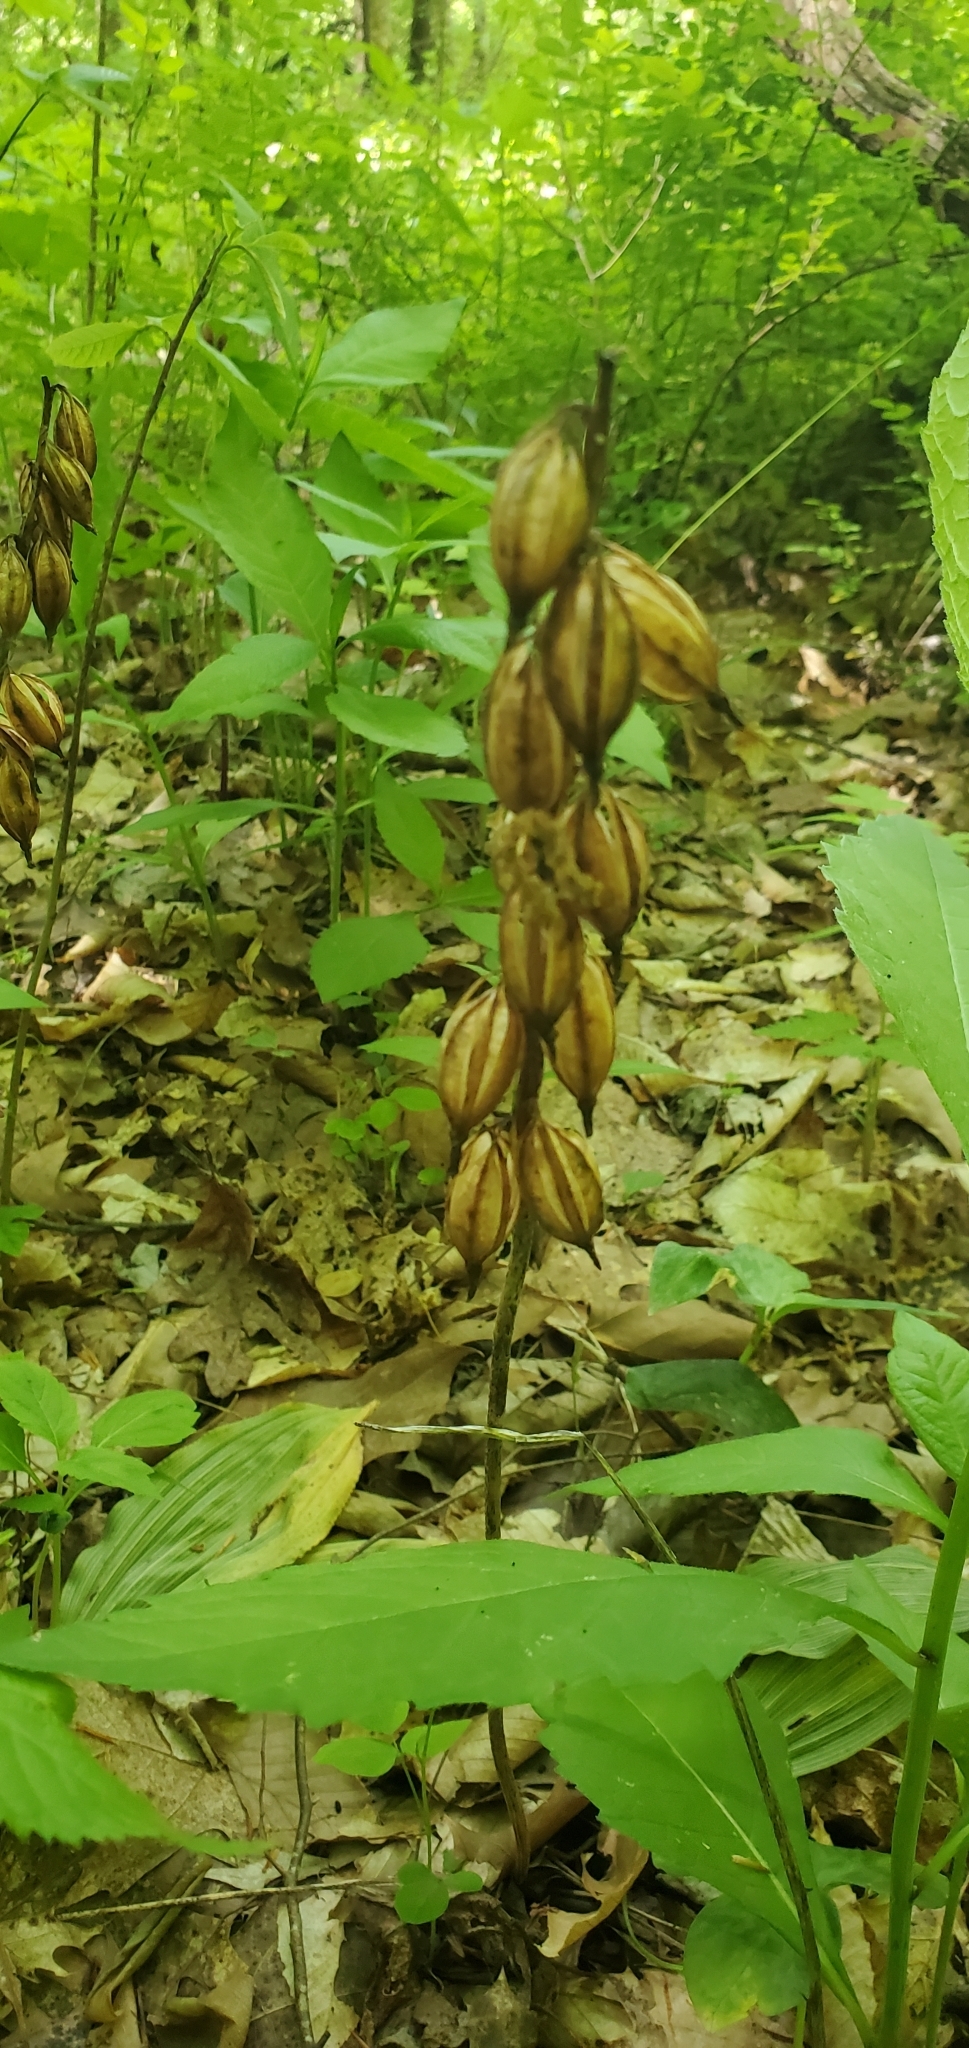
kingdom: Plantae
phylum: Tracheophyta
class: Liliopsida
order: Asparagales
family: Orchidaceae
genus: Aplectrum
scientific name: Aplectrum hyemale
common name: Adam-and-eve
